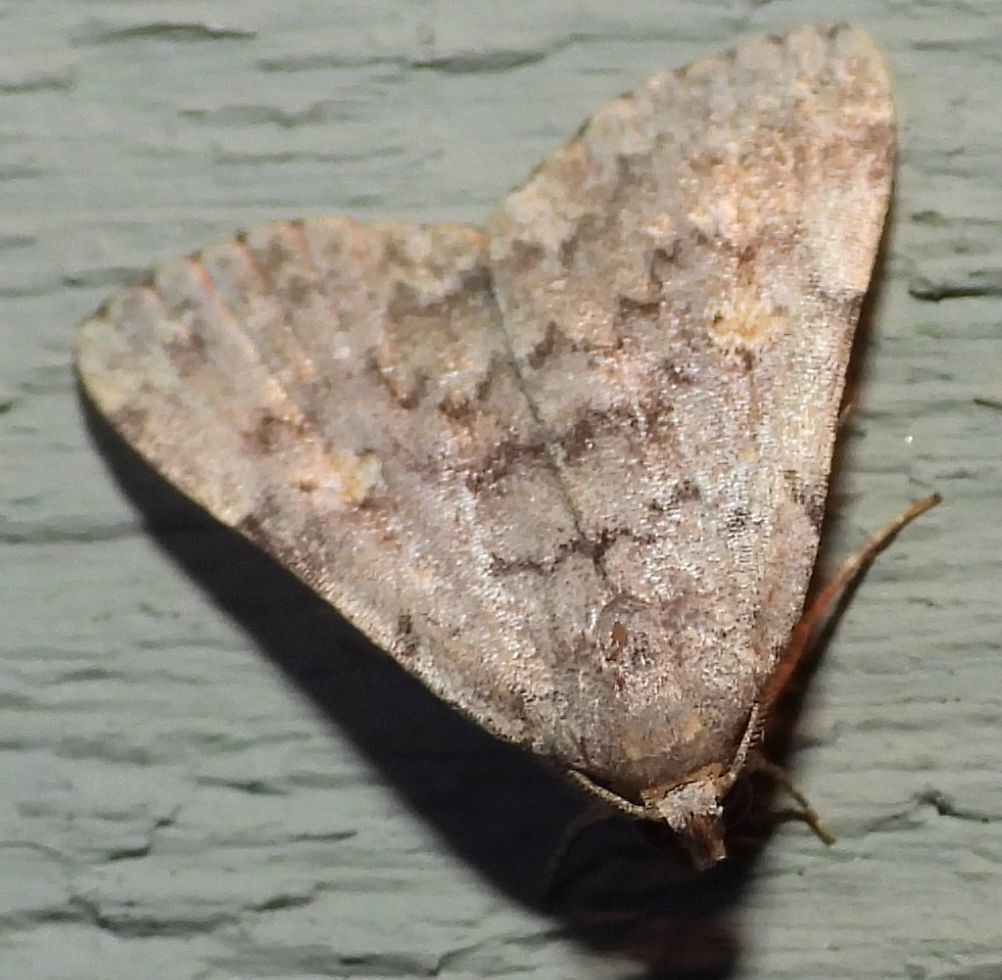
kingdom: Animalia
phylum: Arthropoda
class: Insecta
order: Lepidoptera
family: Erebidae
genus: Idia
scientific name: Idia aemula
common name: Common idia moth
